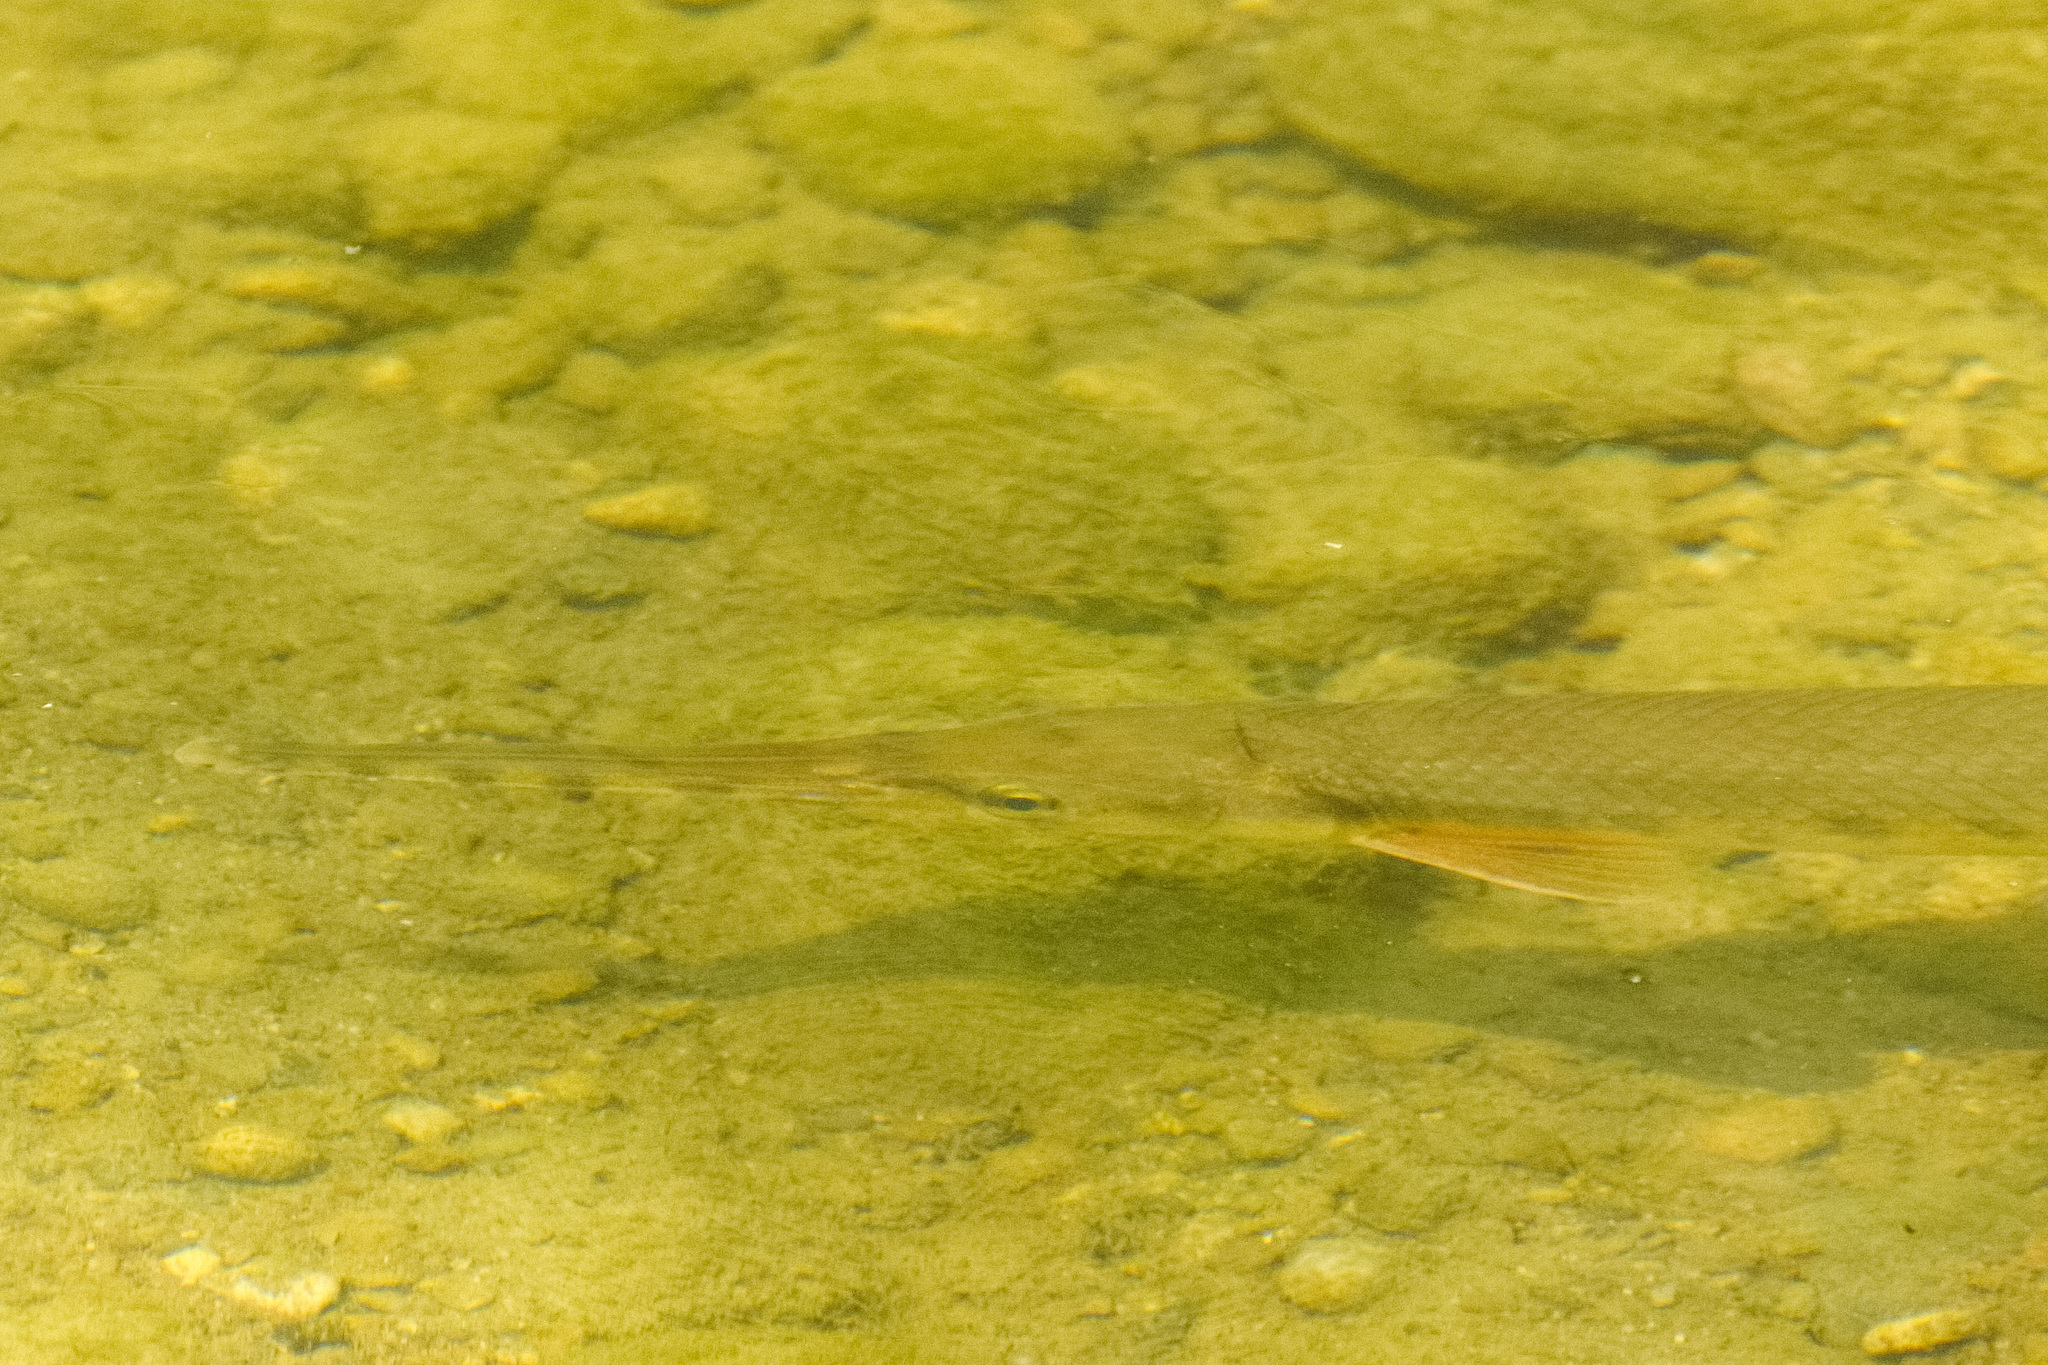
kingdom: Animalia
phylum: Chordata
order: Lepisosteiformes
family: Lepisosteidae
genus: Lepisosteus
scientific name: Lepisosteus osseus
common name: Longnose gar
